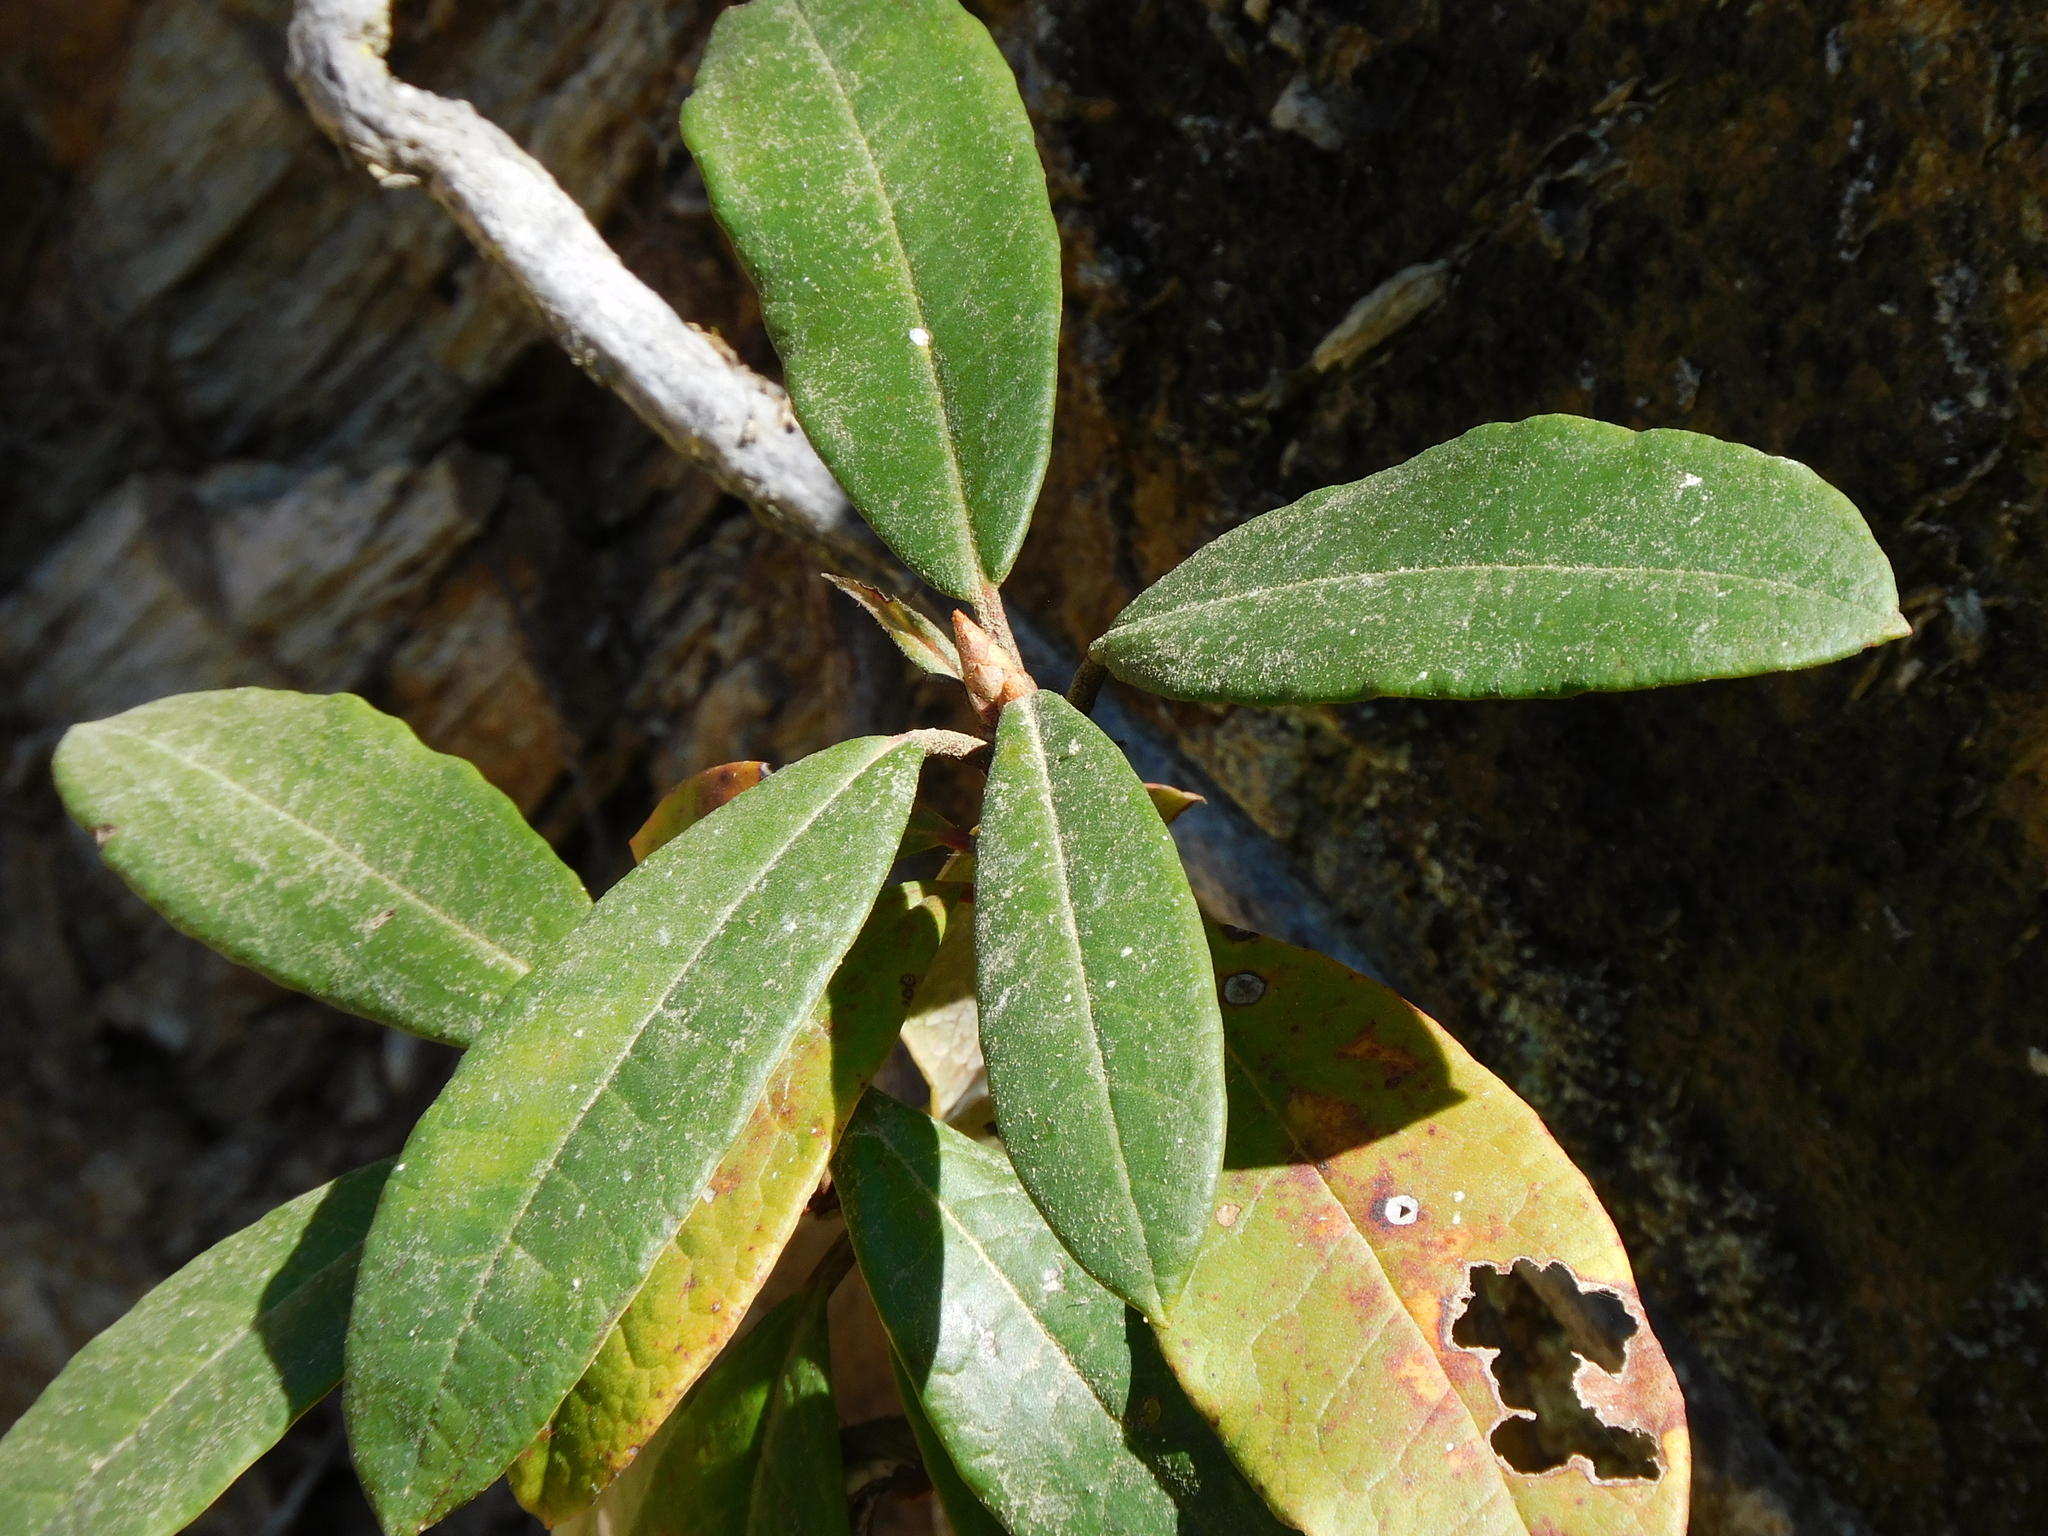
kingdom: Plantae
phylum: Tracheophyta
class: Magnoliopsida
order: Ericales
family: Ericaceae
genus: Rhododendron
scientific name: Rhododendron arboreum
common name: Tree rhododendron
